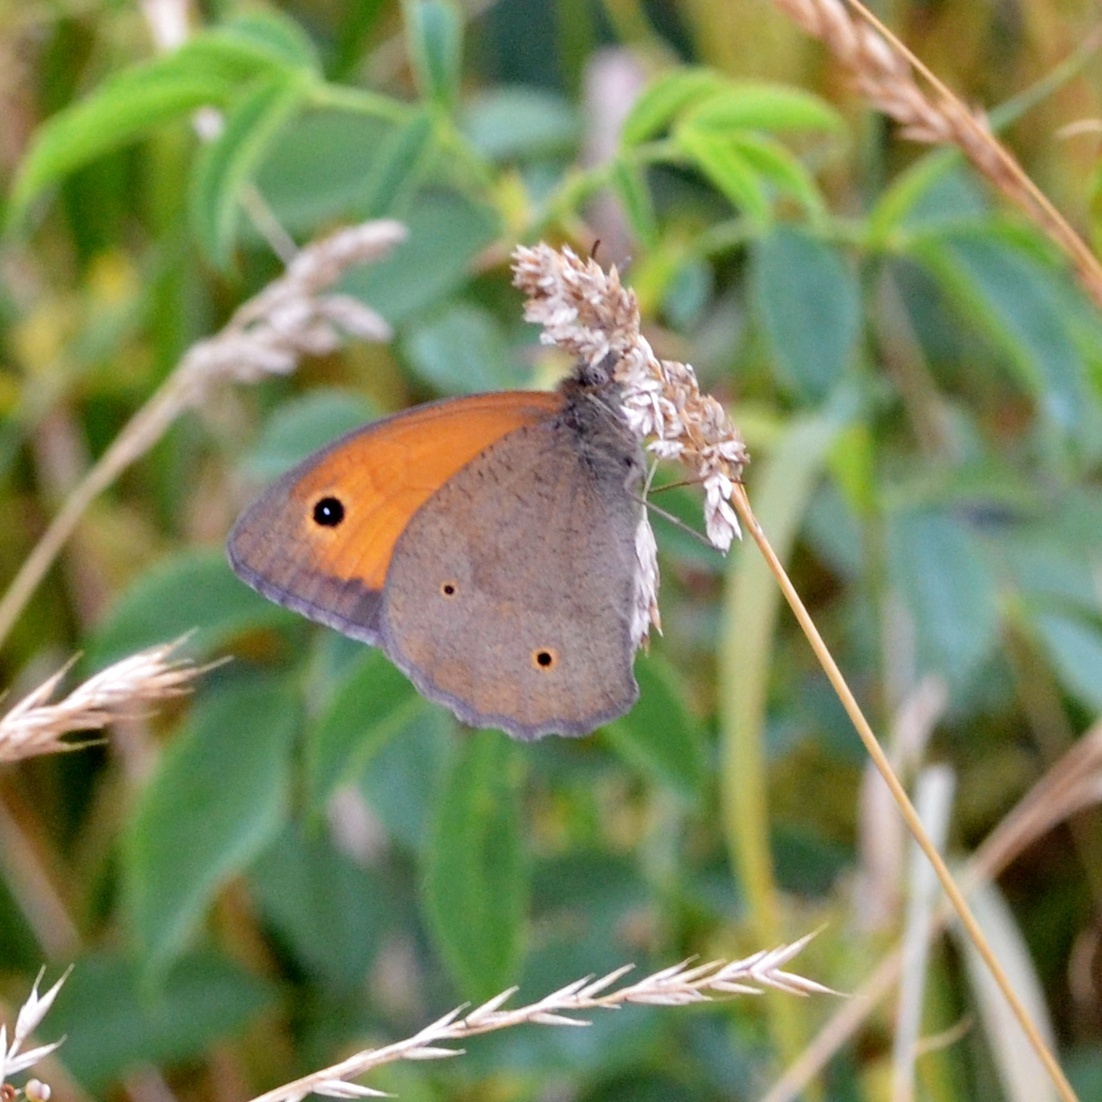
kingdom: Animalia
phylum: Arthropoda
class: Insecta
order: Lepidoptera
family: Nymphalidae
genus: Maniola
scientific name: Maniola jurtina
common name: Meadow brown
